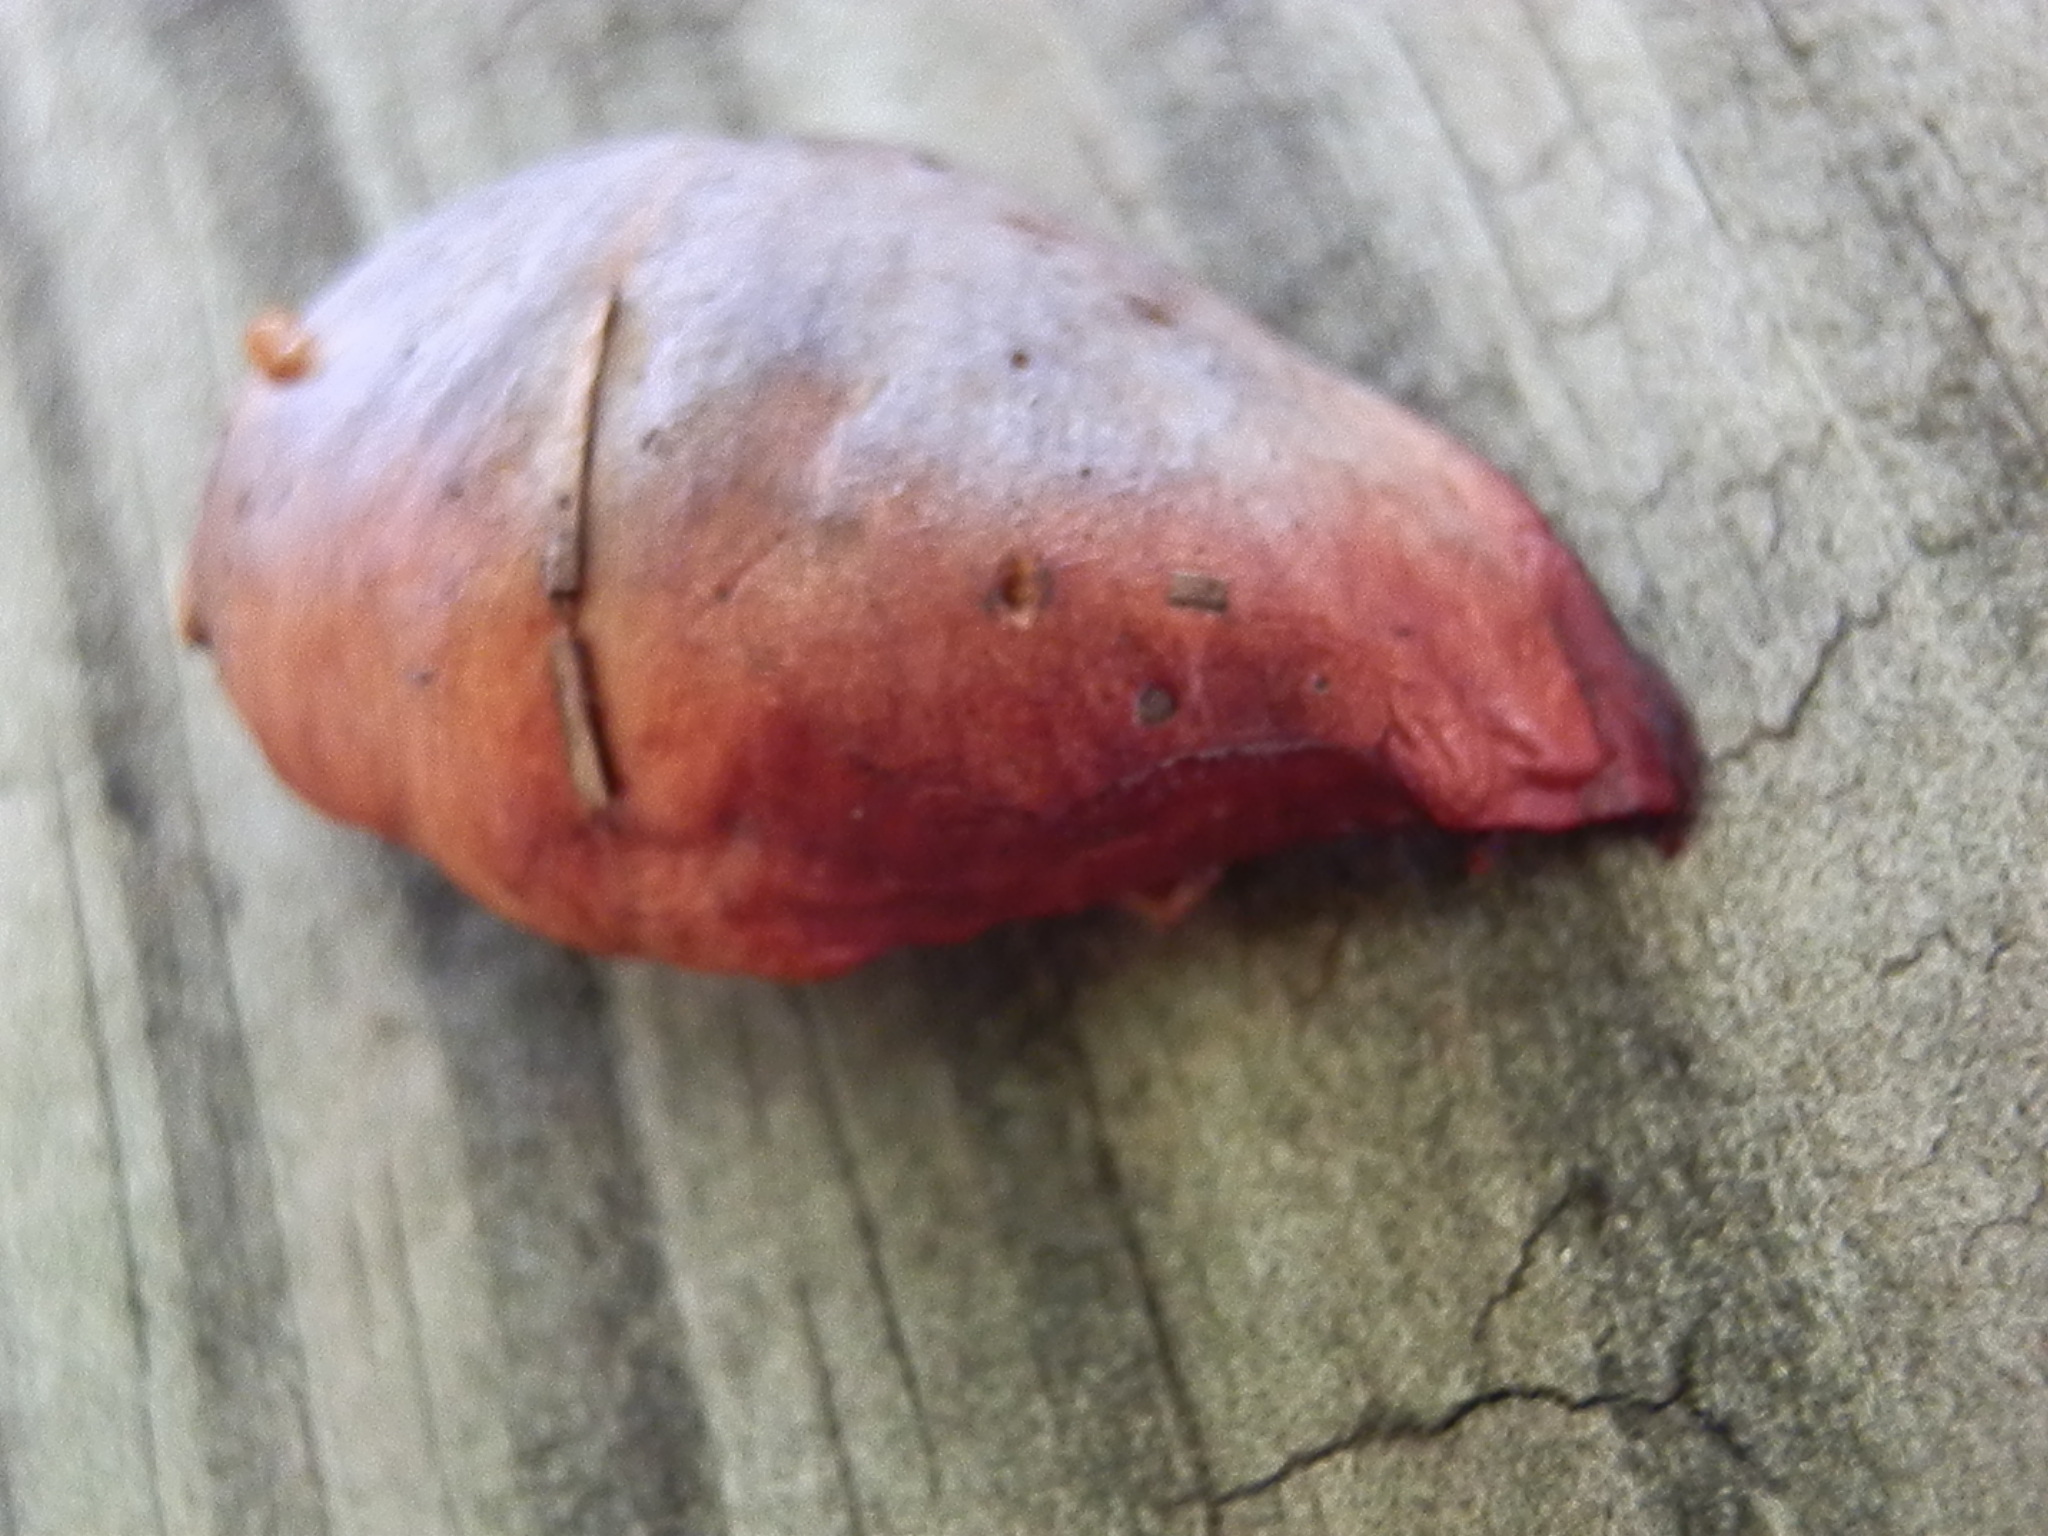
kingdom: Fungi
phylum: Basidiomycota
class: Agaricomycetes
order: Boletales
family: Gomphidiaceae
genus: Chroogomphus
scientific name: Chroogomphus vinicolor
